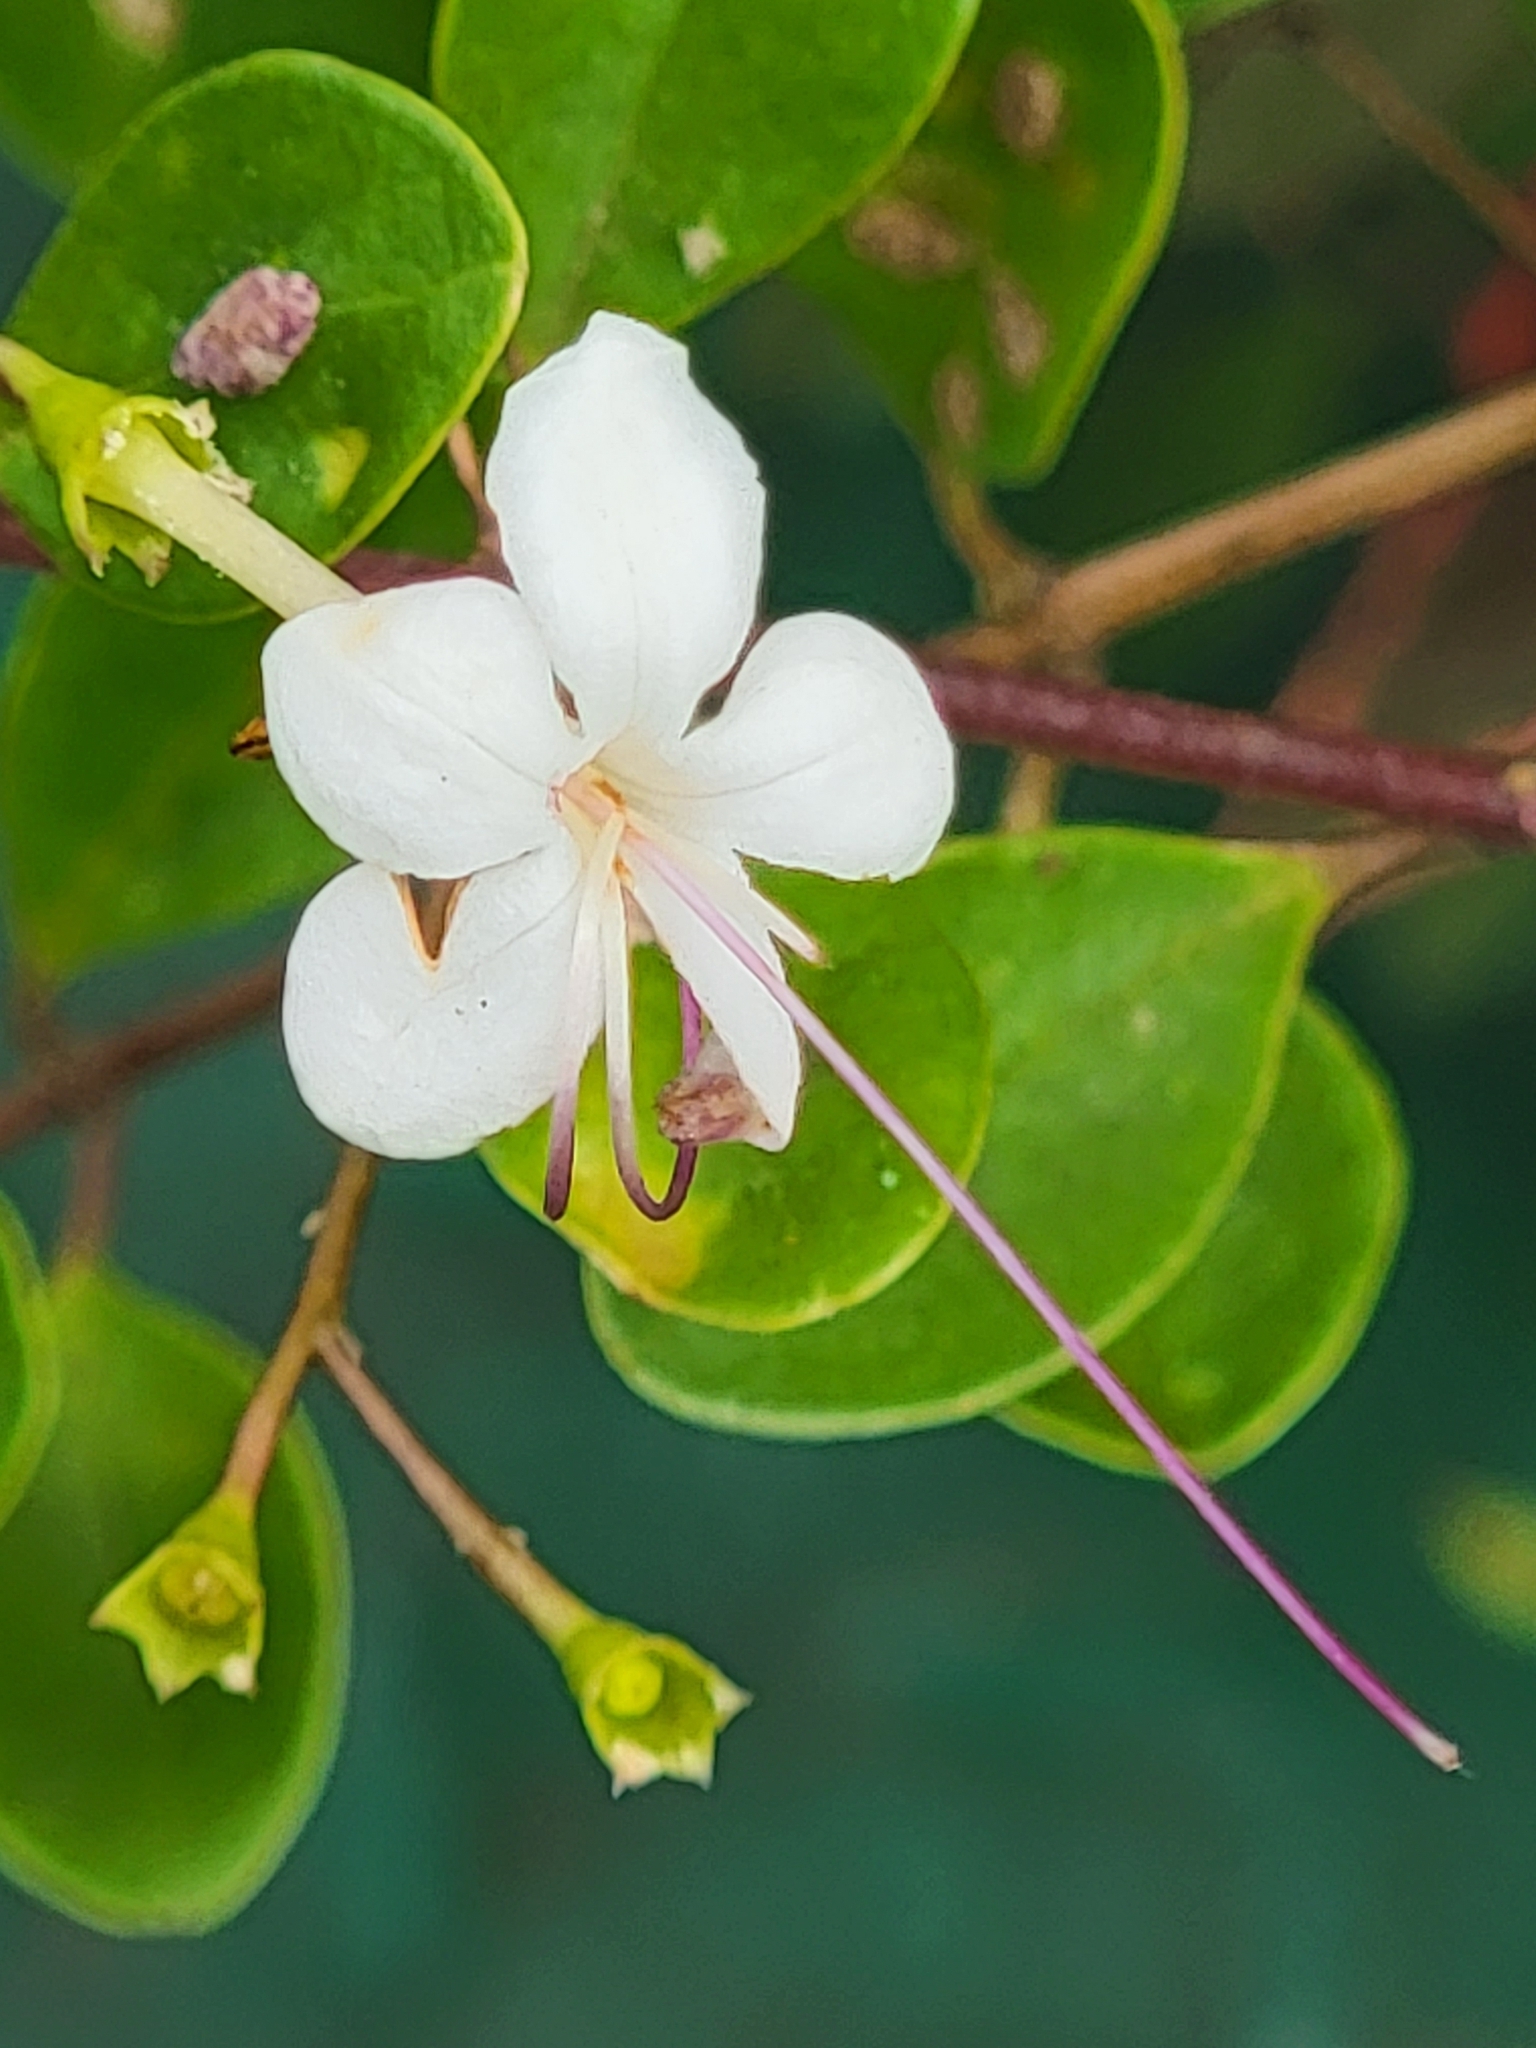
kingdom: Plantae
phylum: Tracheophyta
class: Magnoliopsida
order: Lamiales
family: Lamiaceae
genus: Volkameria
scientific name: Volkameria inermis
